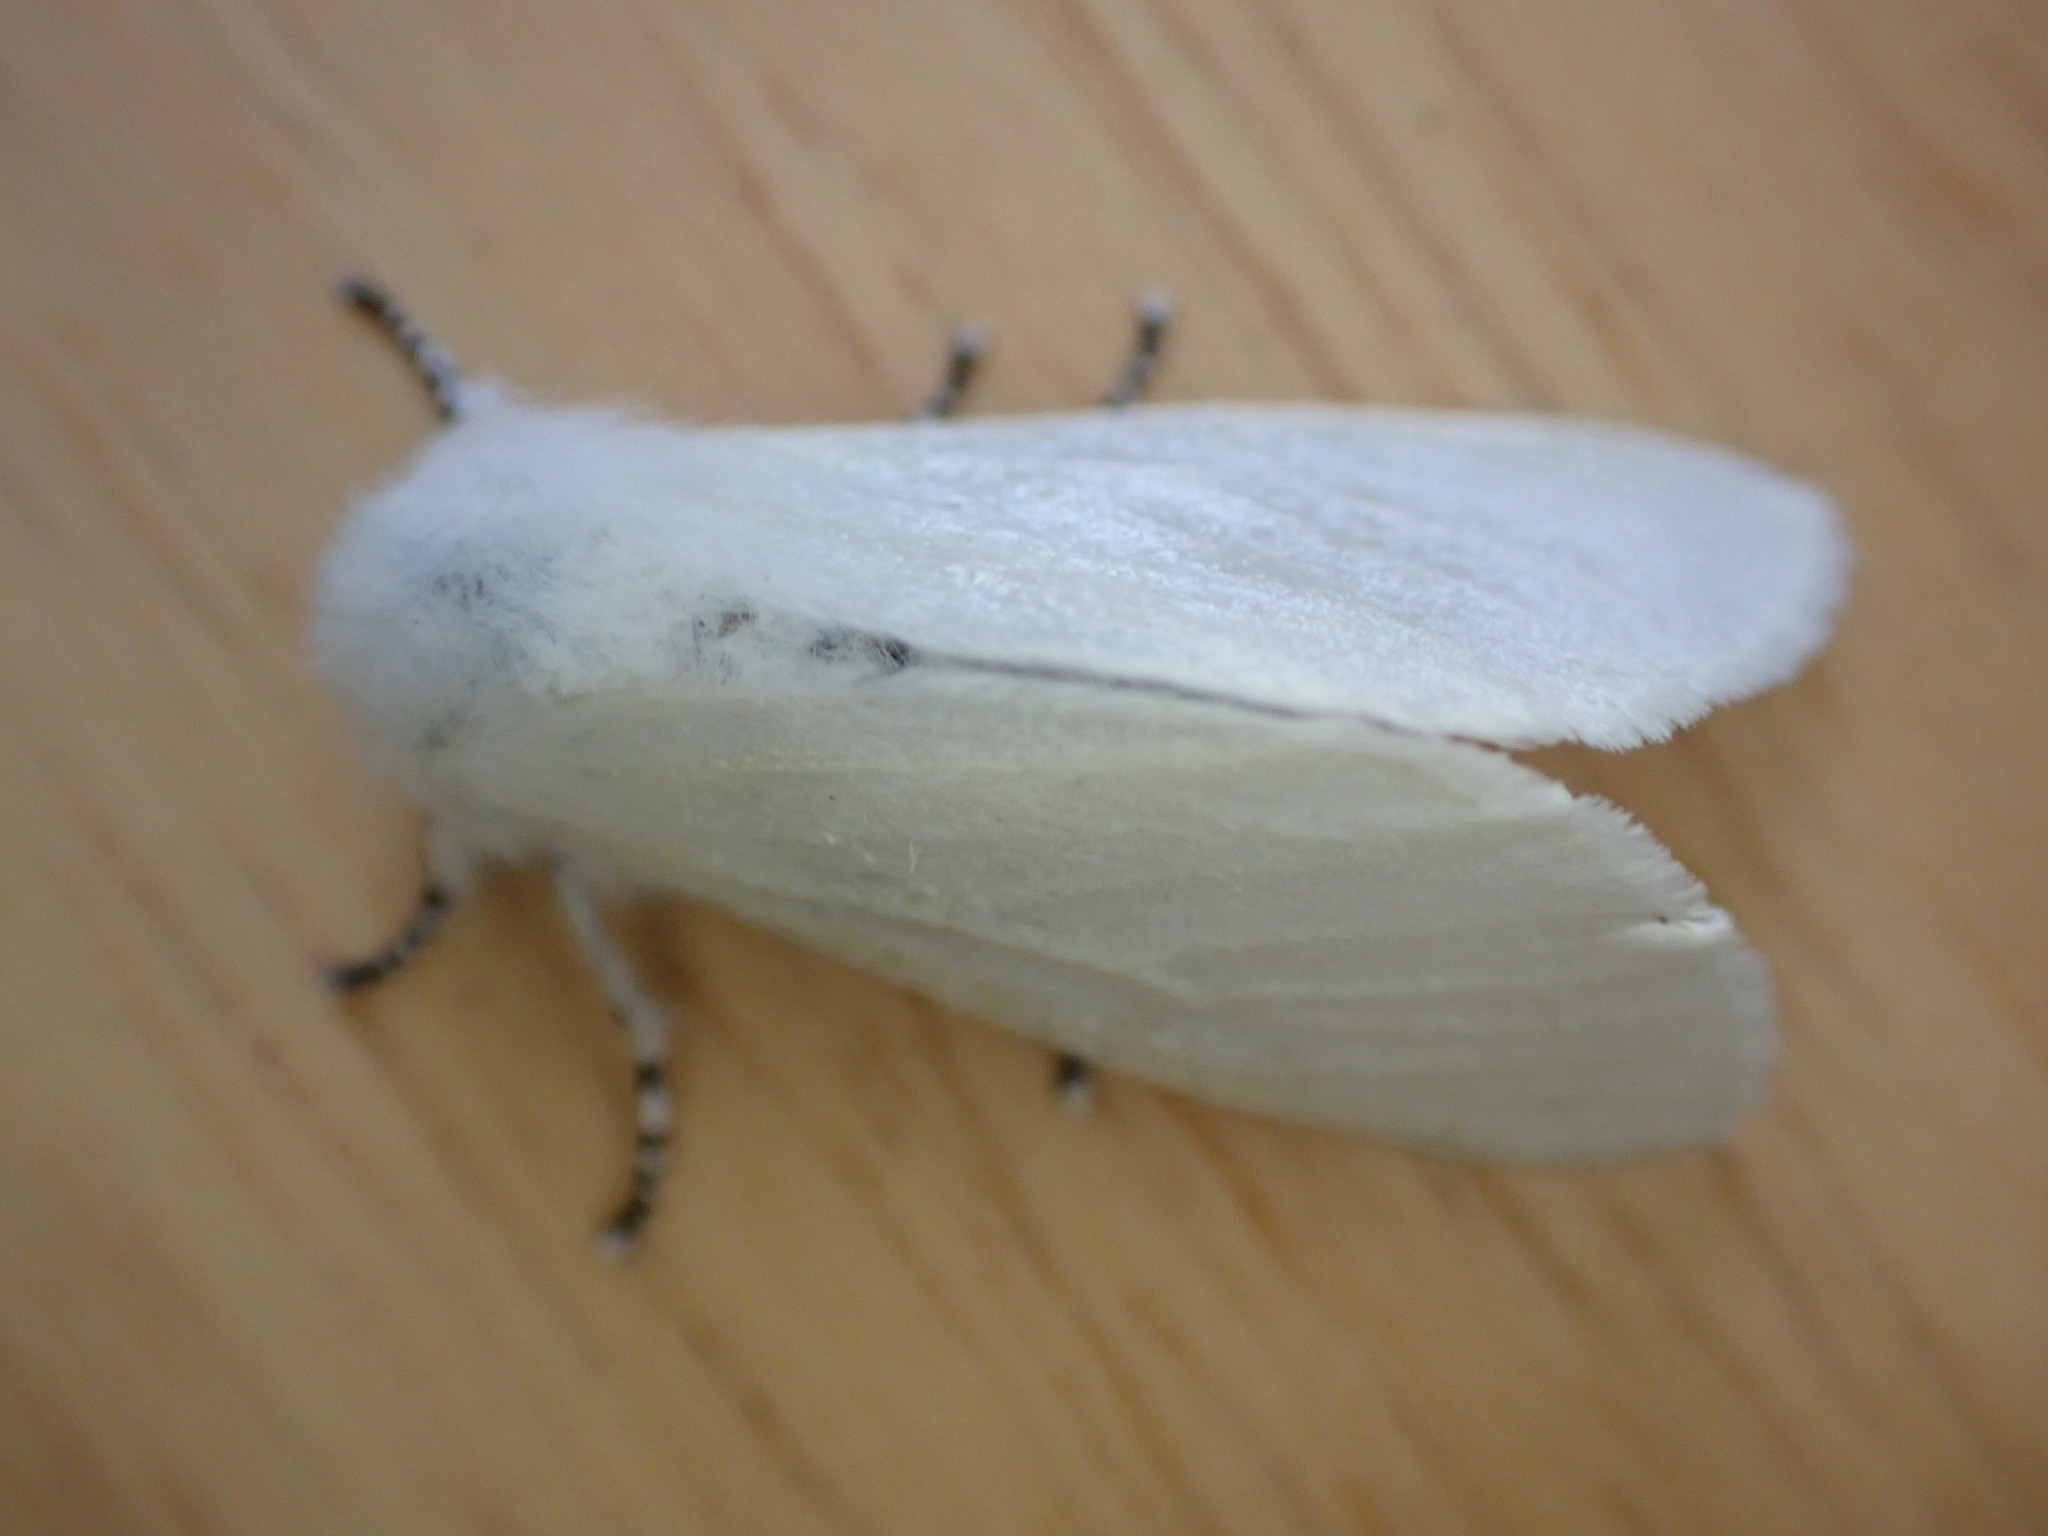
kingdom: Animalia
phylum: Arthropoda
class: Insecta
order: Lepidoptera
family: Erebidae
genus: Leucoma
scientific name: Leucoma salicis
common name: White satin moth
